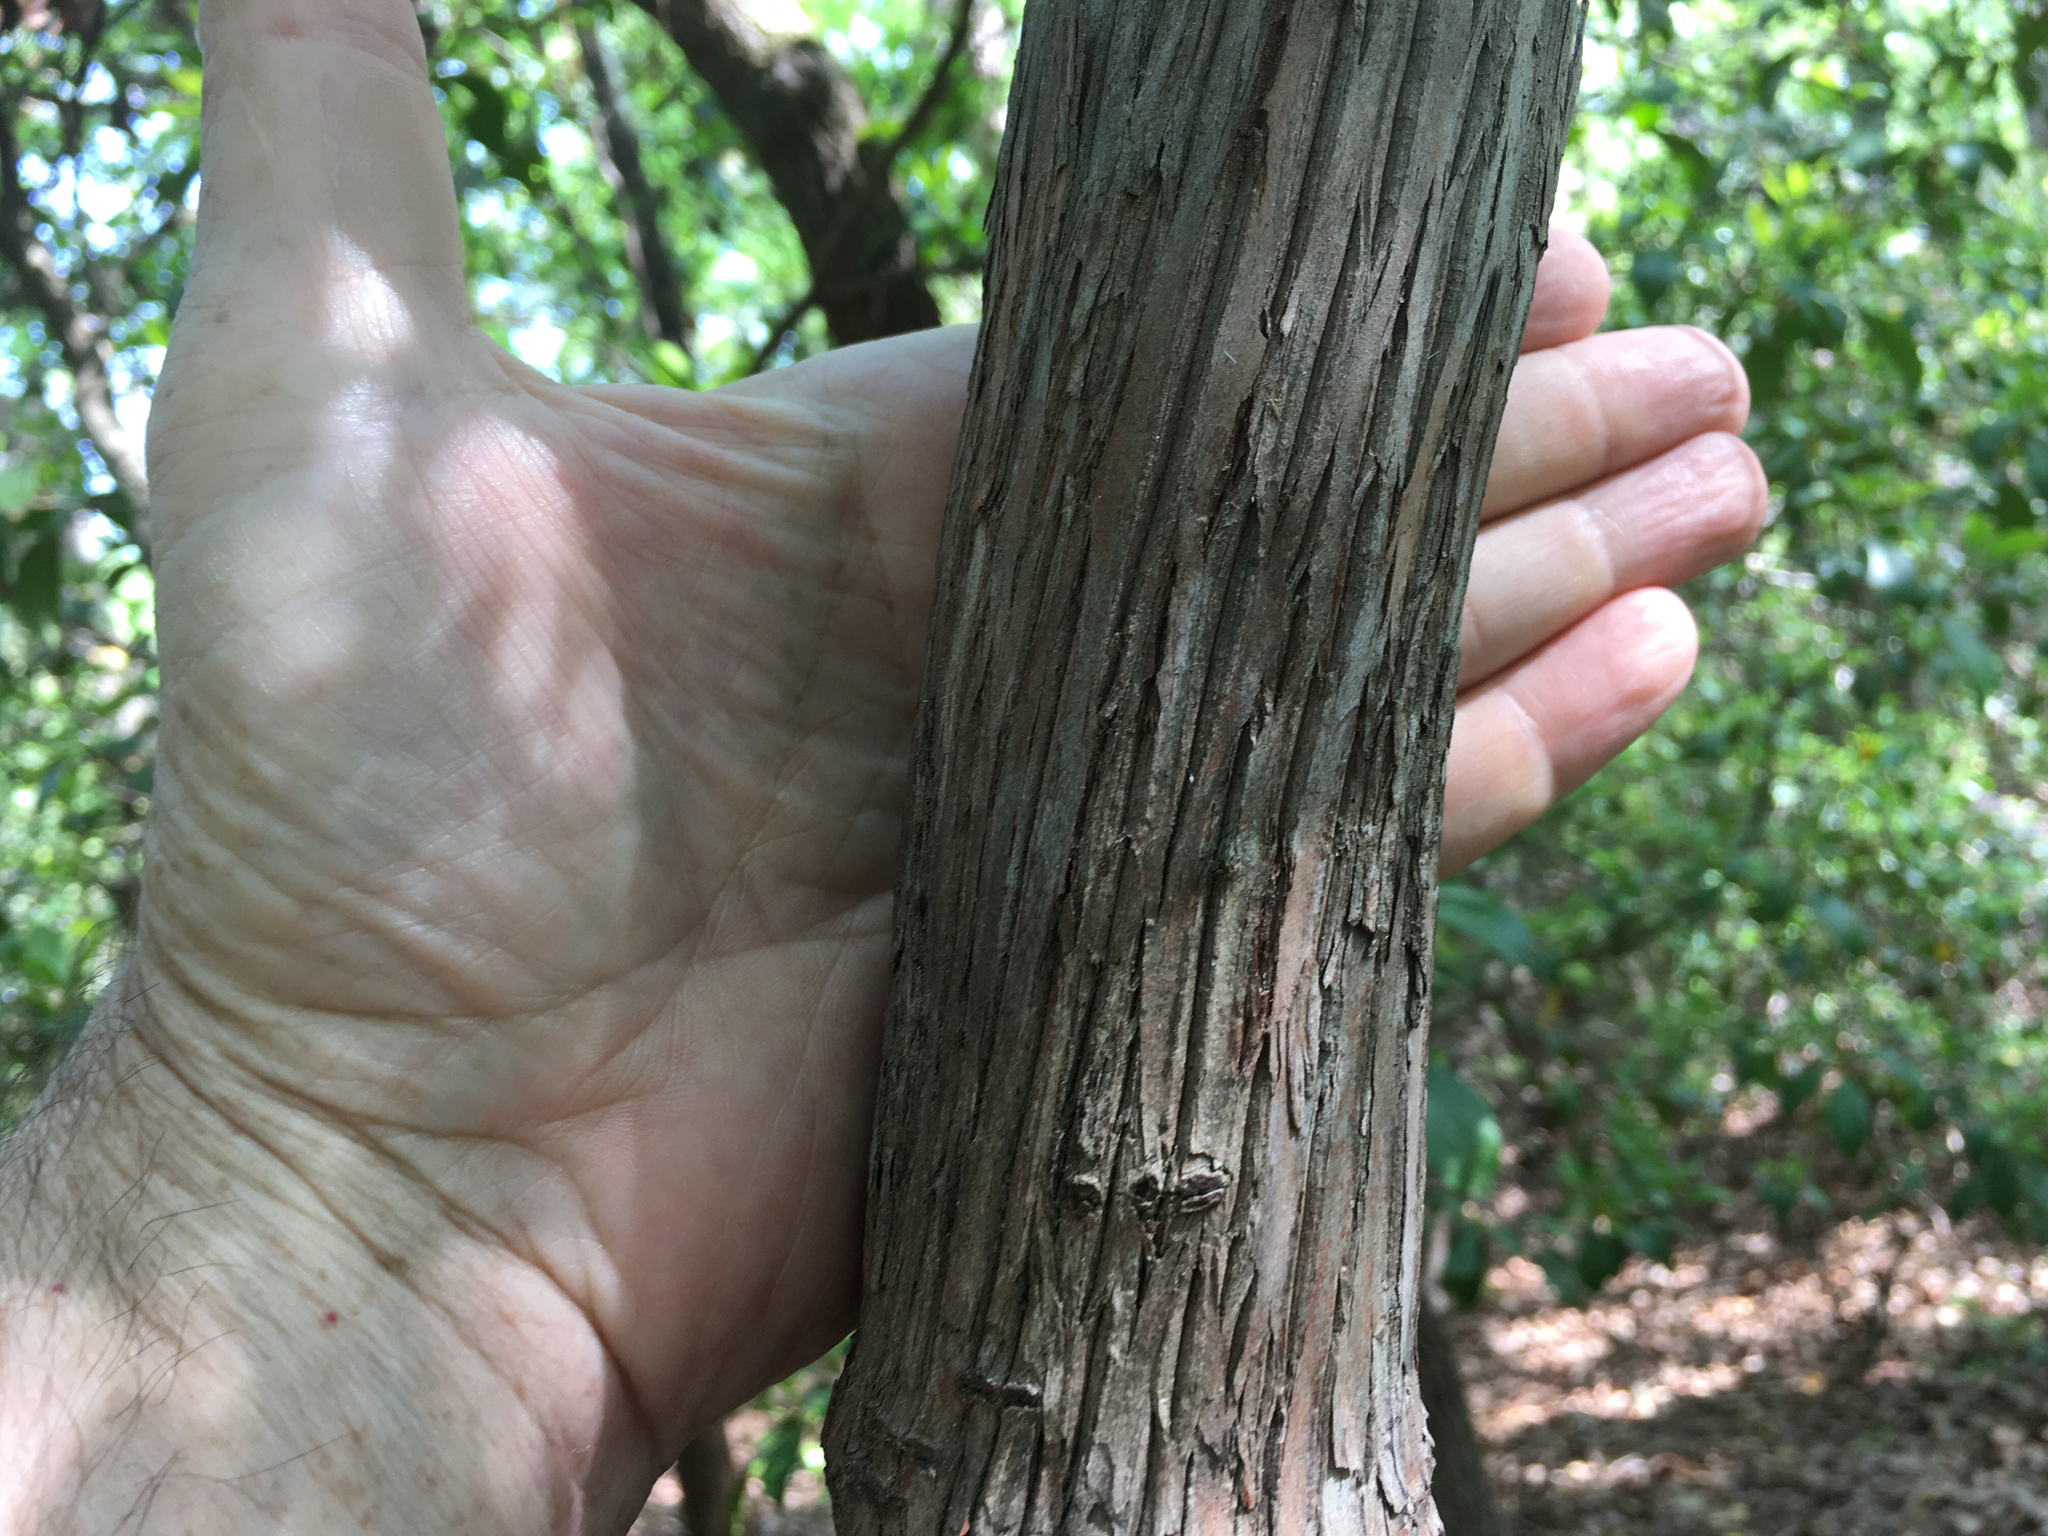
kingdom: Plantae
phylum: Tracheophyta
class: Magnoliopsida
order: Ericales
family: Ericaceae
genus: Kalmia
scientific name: Kalmia latifolia
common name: Mountain-laurel
